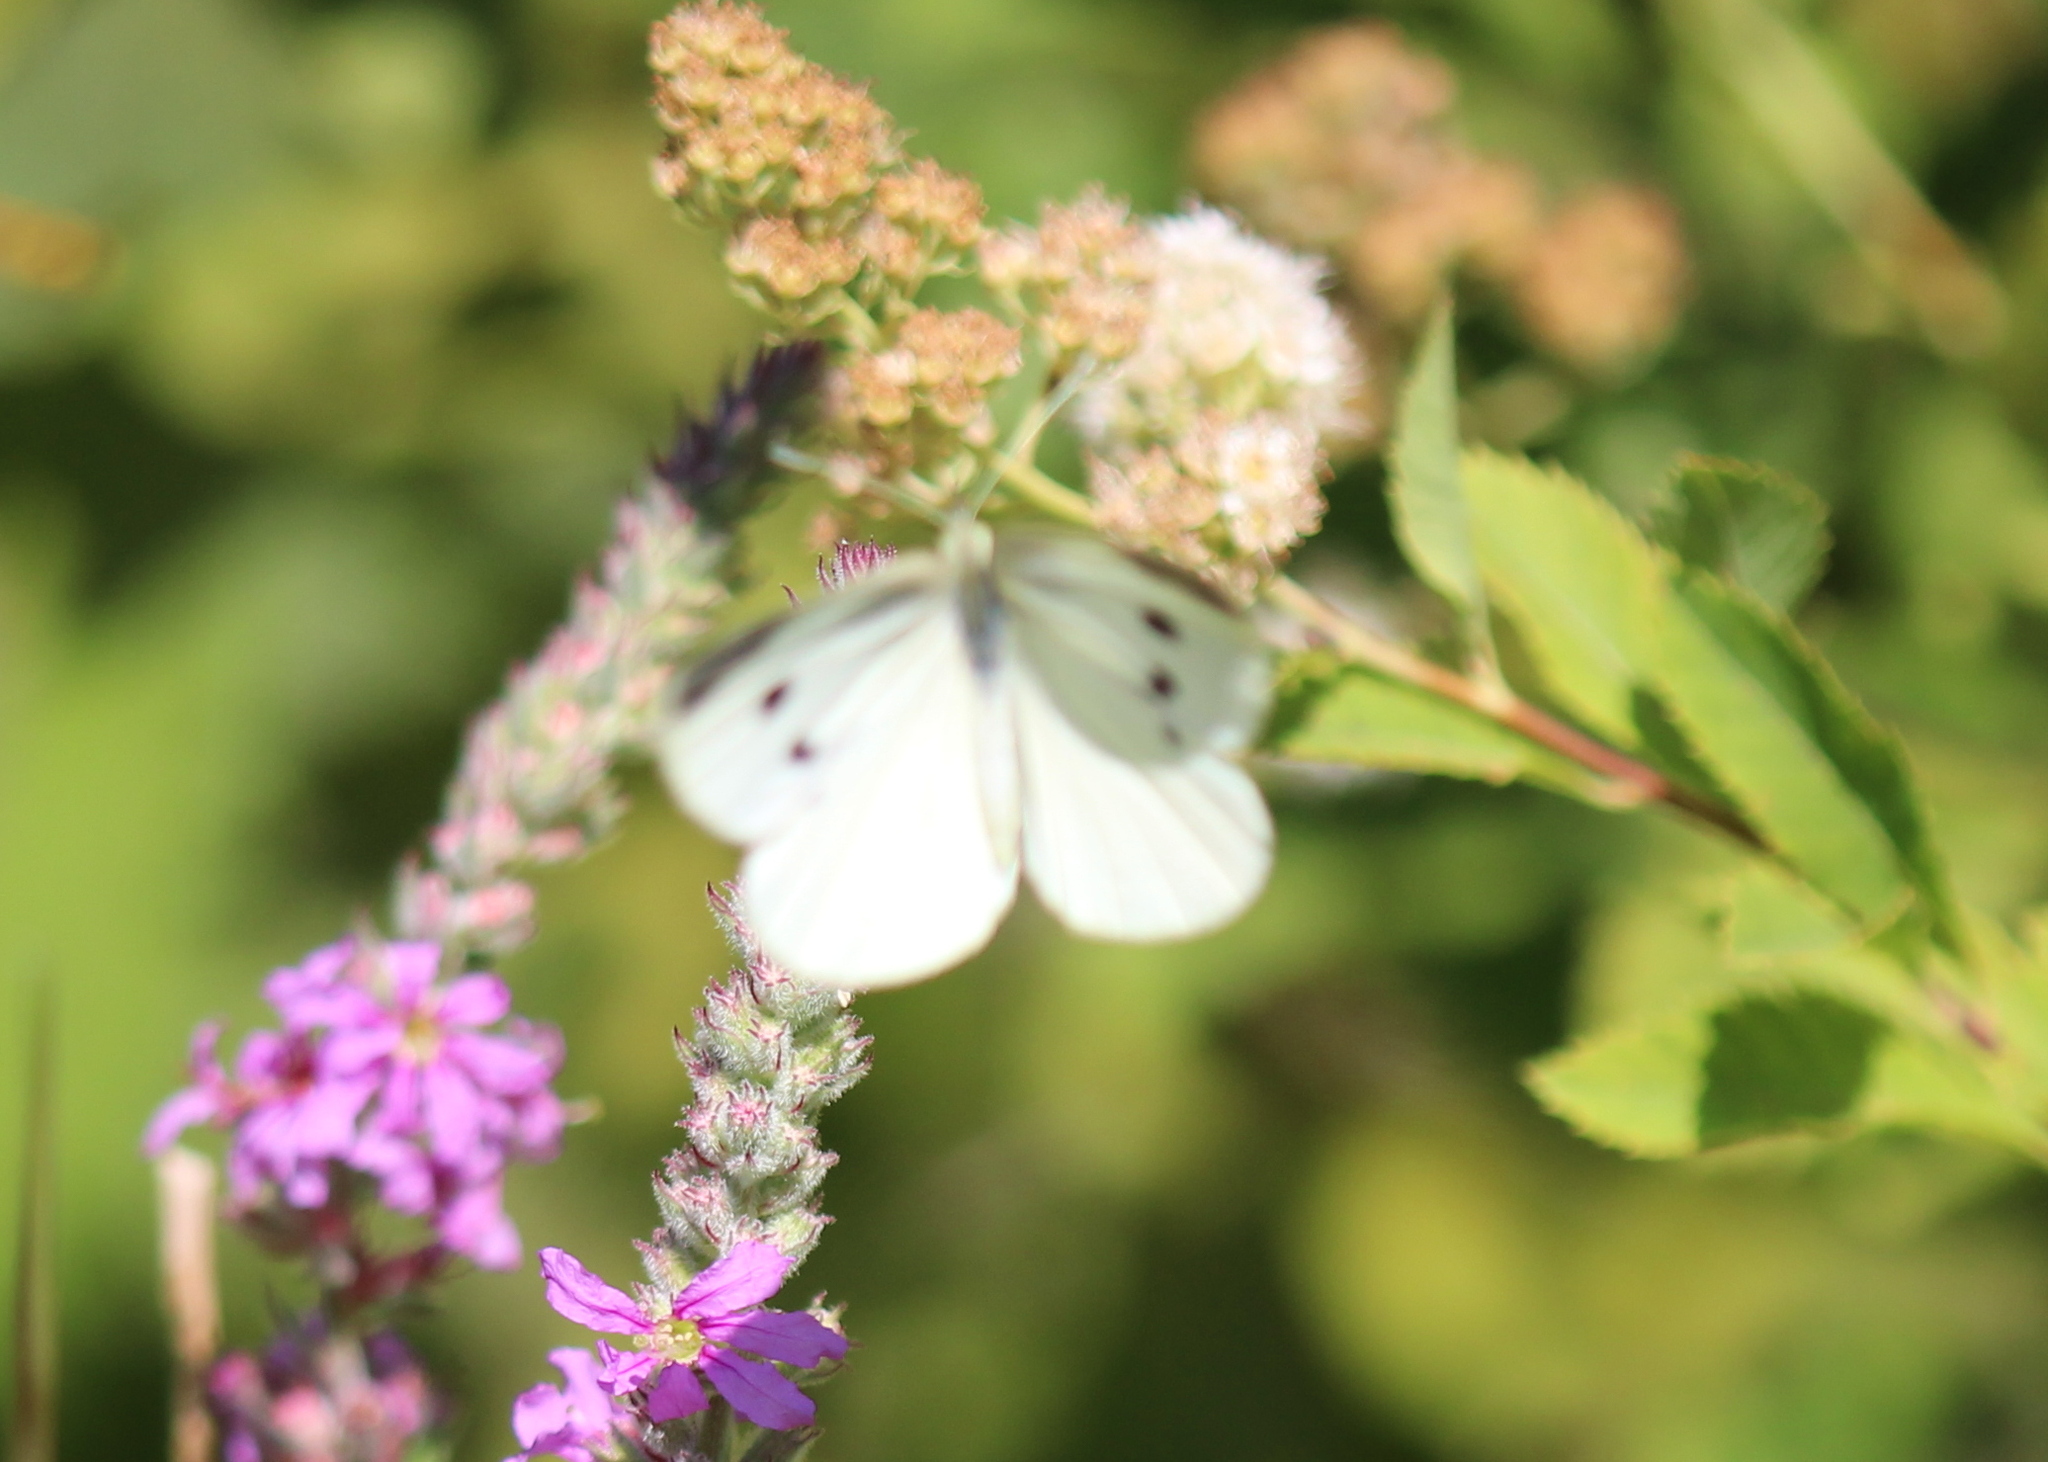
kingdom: Animalia
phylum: Arthropoda
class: Insecta
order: Lepidoptera
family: Pieridae
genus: Pieris
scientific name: Pieris rapae
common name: Small white
